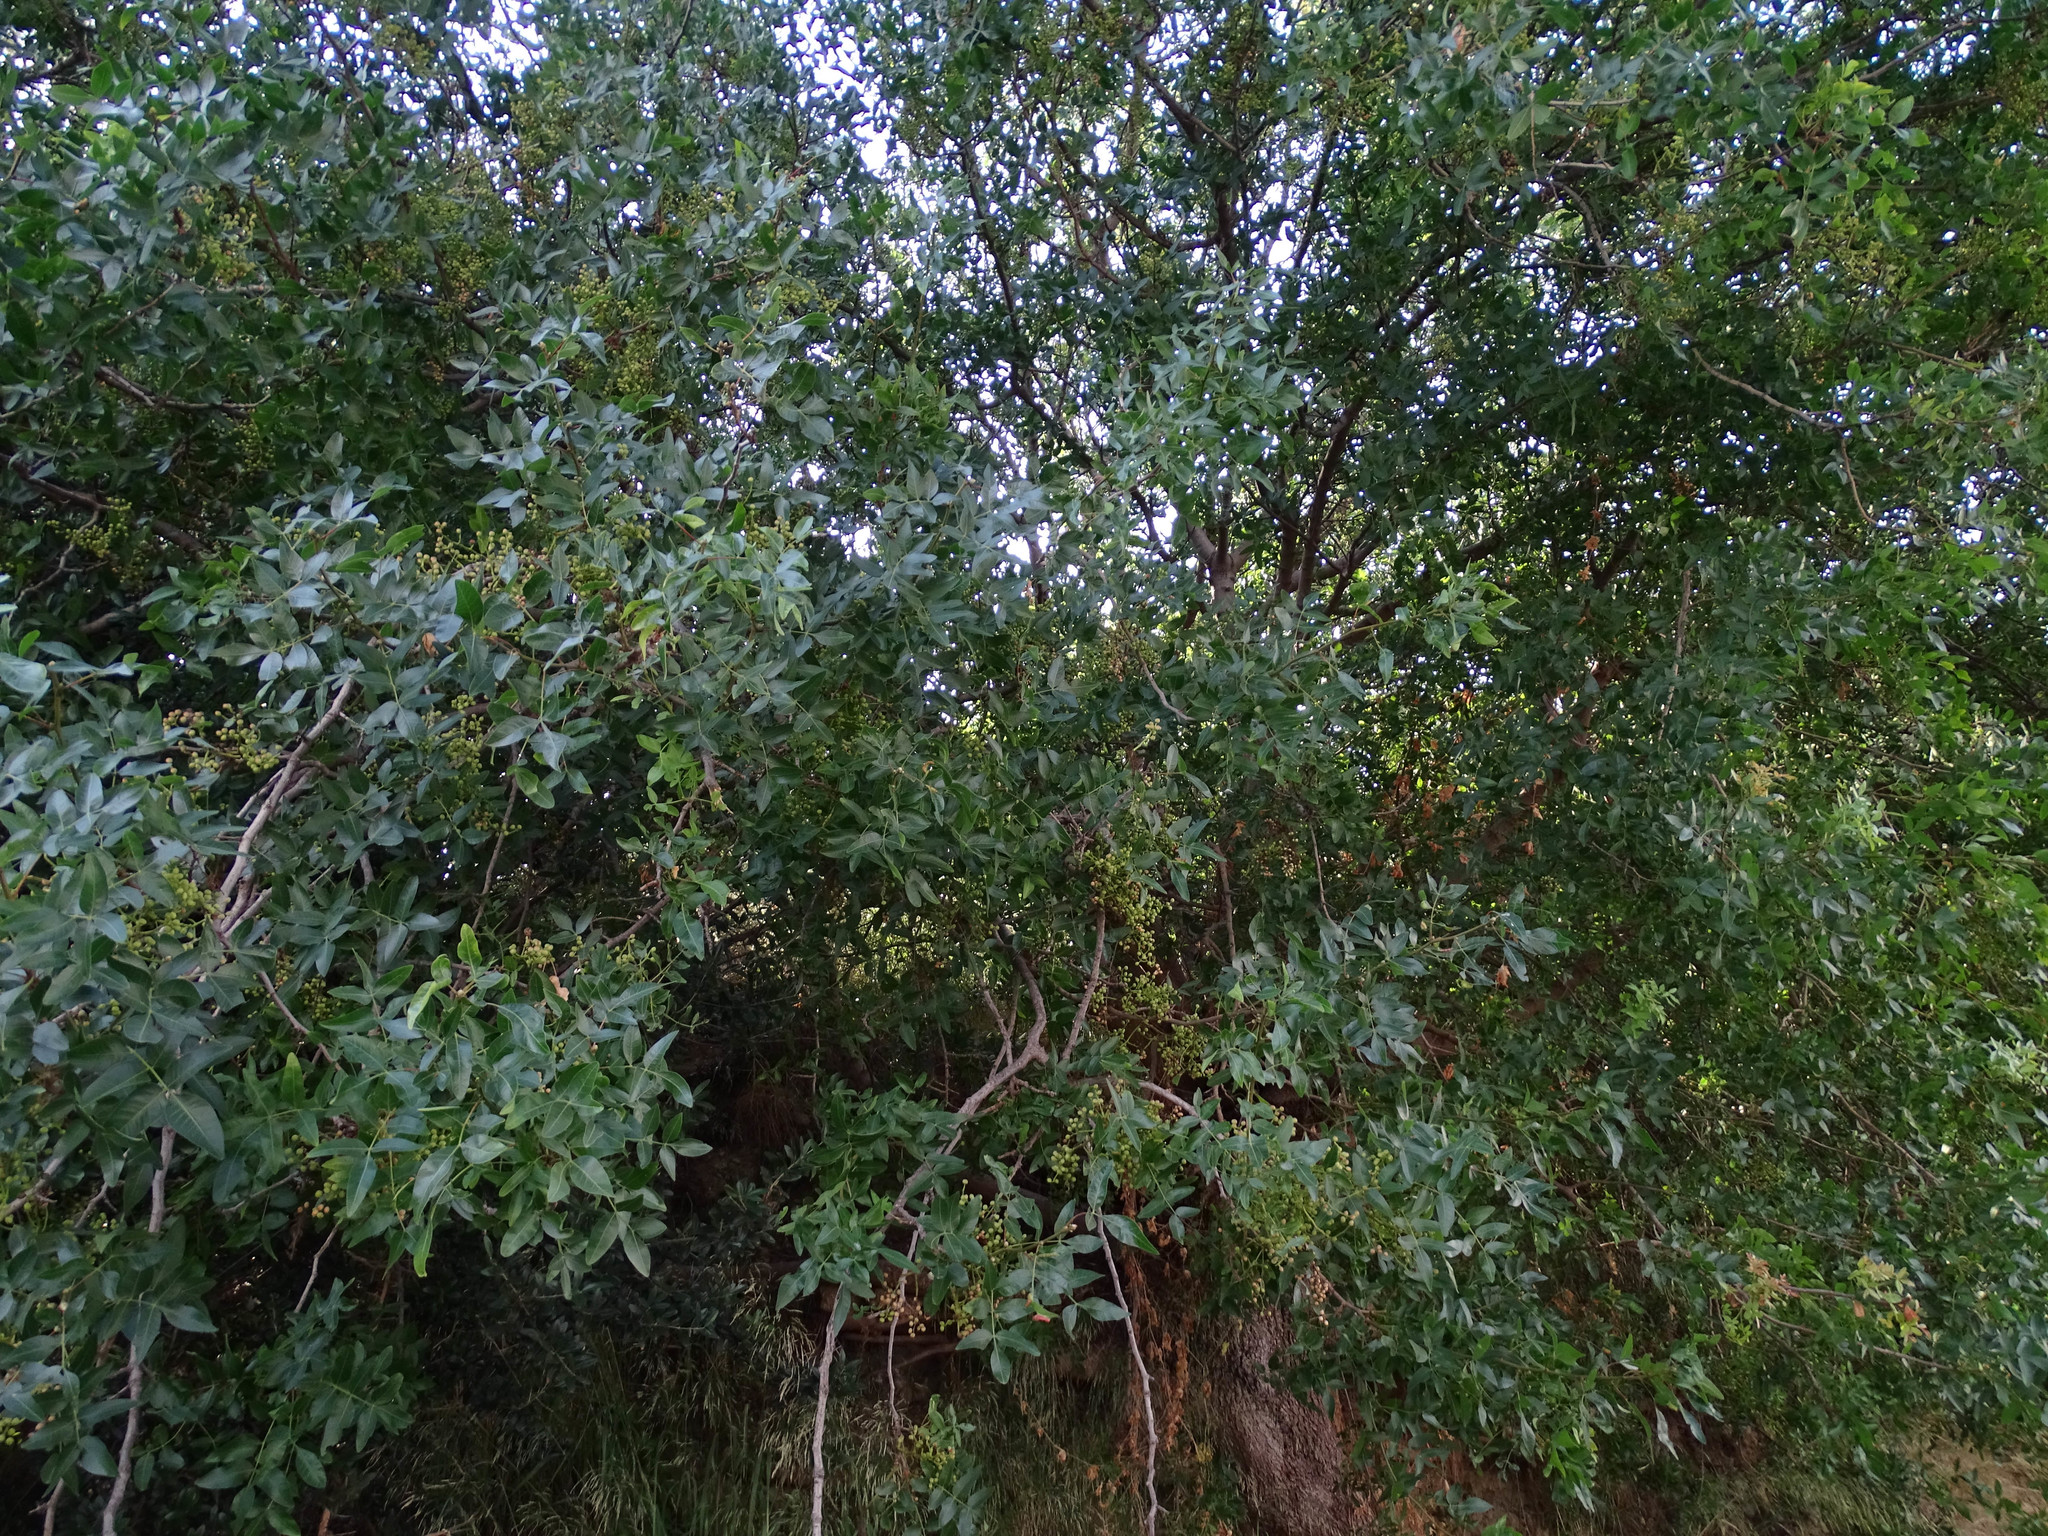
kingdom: Plantae
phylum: Tracheophyta
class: Magnoliopsida
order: Sapindales
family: Anacardiaceae
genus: Pistacia
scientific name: Pistacia atlantica
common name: Mt. atlas mastic tree
